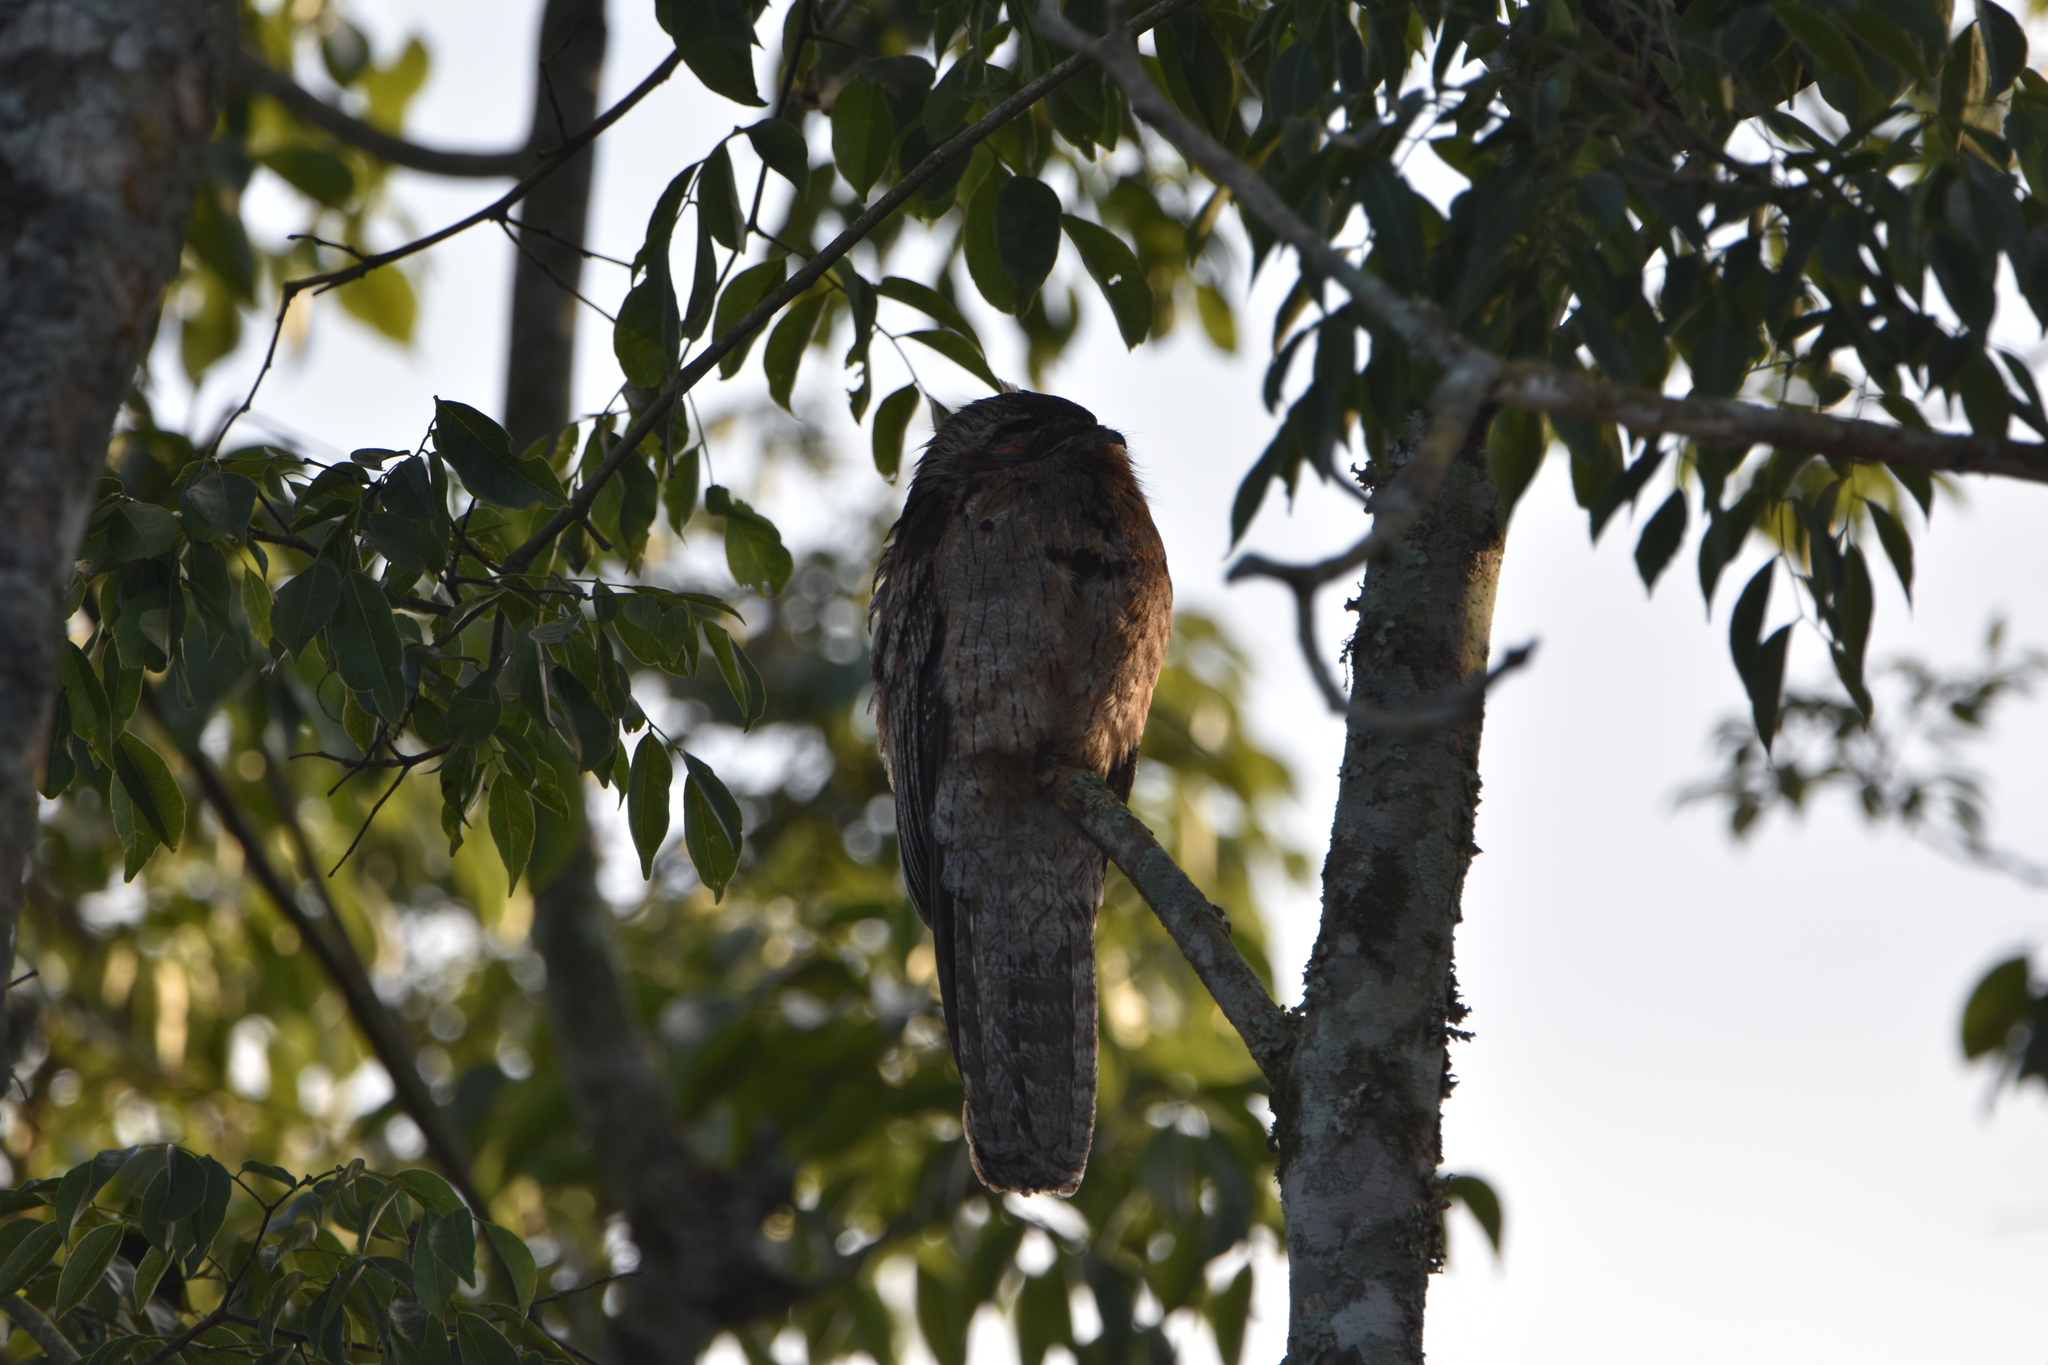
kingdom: Animalia
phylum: Chordata
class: Aves
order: Nyctibiiformes
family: Nyctibiidae
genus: Nyctibius
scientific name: Nyctibius griseus
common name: Common potoo
